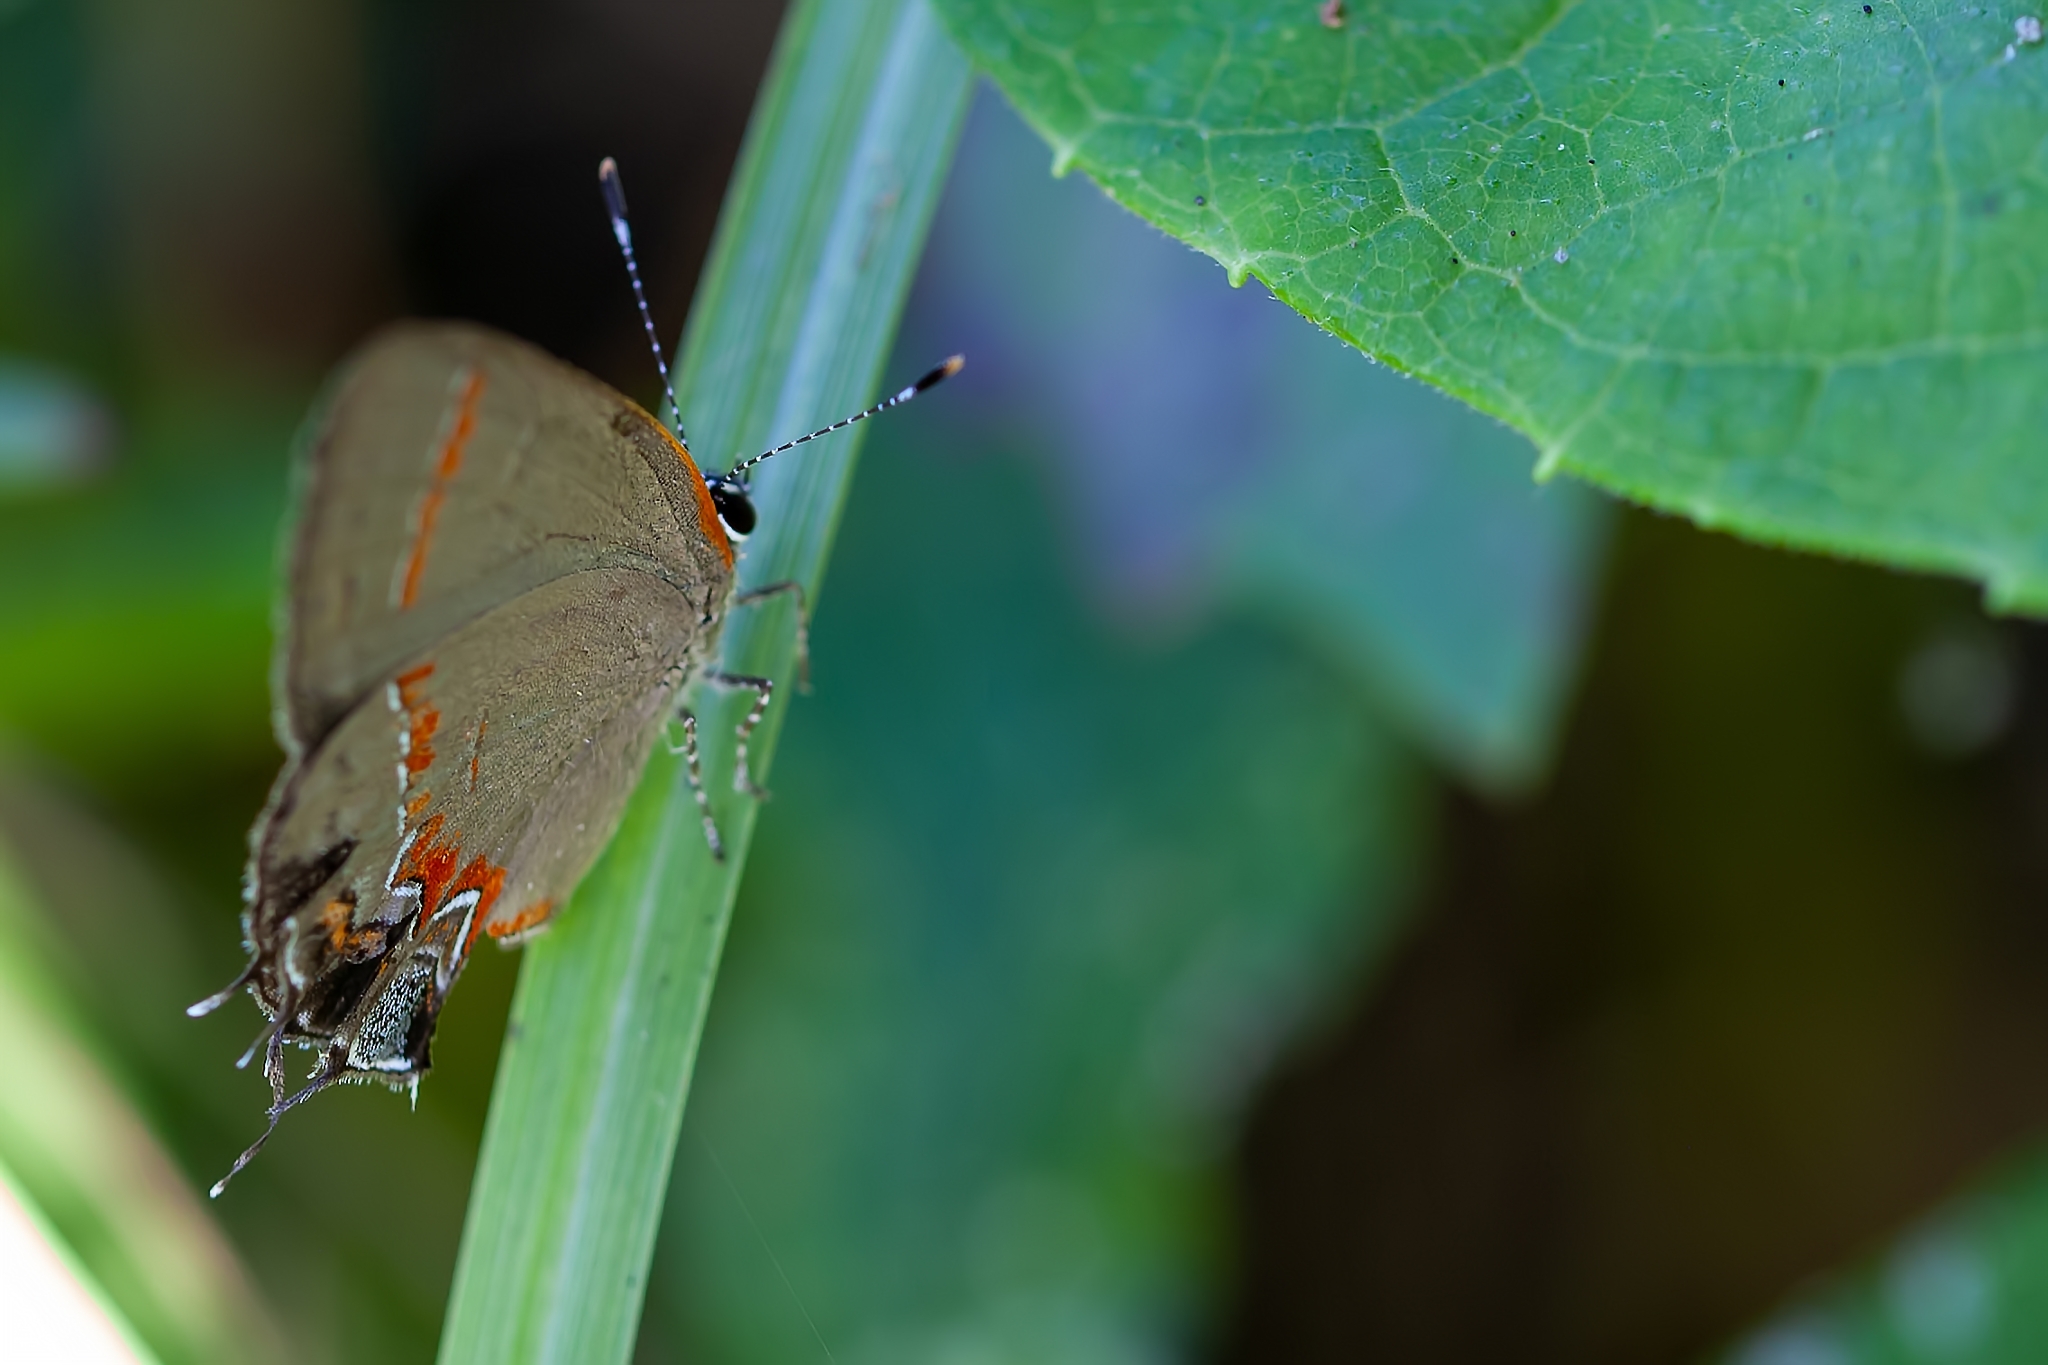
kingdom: Animalia
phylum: Arthropoda
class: Insecta
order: Lepidoptera
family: Lycaenidae
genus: Calycopis
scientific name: Calycopis cecrops
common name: Red-banded hairstreak
